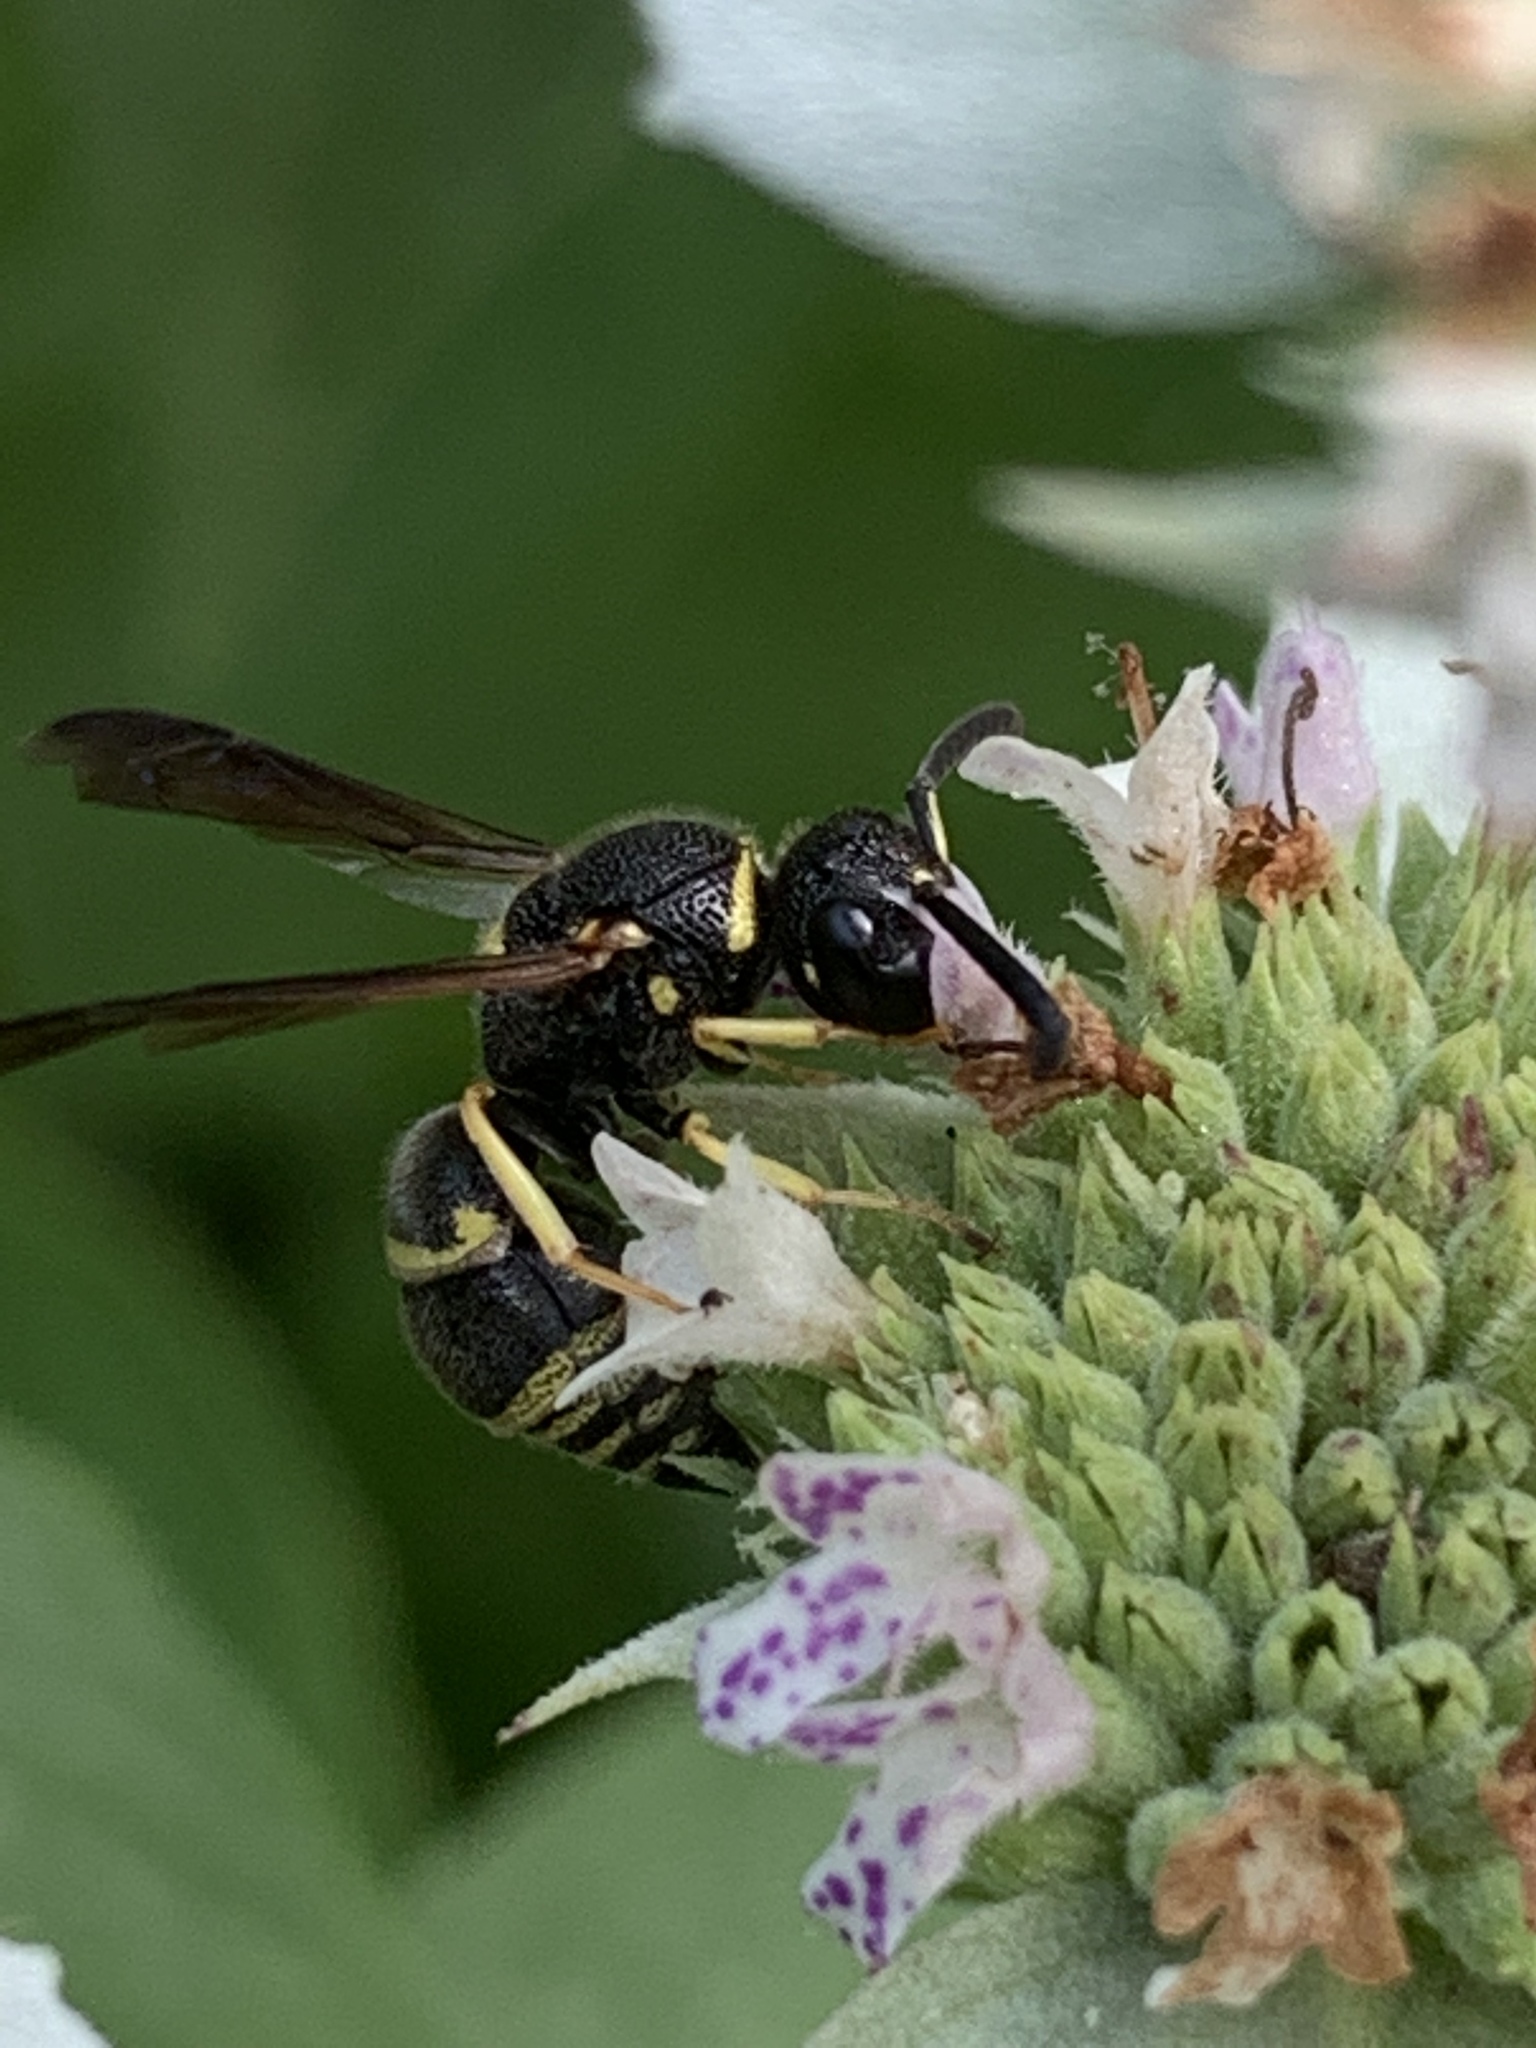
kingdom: Animalia
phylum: Arthropoda
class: Insecta
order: Hymenoptera
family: Eumenidae
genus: Euodynerus
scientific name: Euodynerus foraminatus
